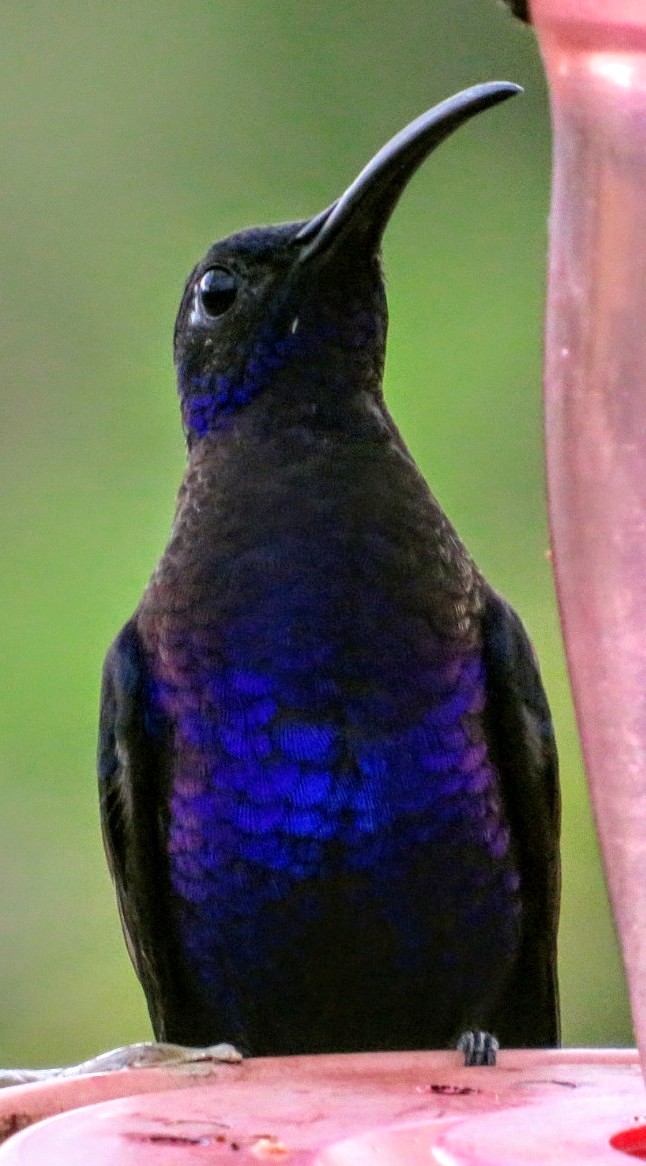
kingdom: Animalia
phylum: Chordata
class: Aves
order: Apodiformes
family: Trochilidae
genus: Campylopterus
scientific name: Campylopterus hemileucurus
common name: Violet sabrewing
